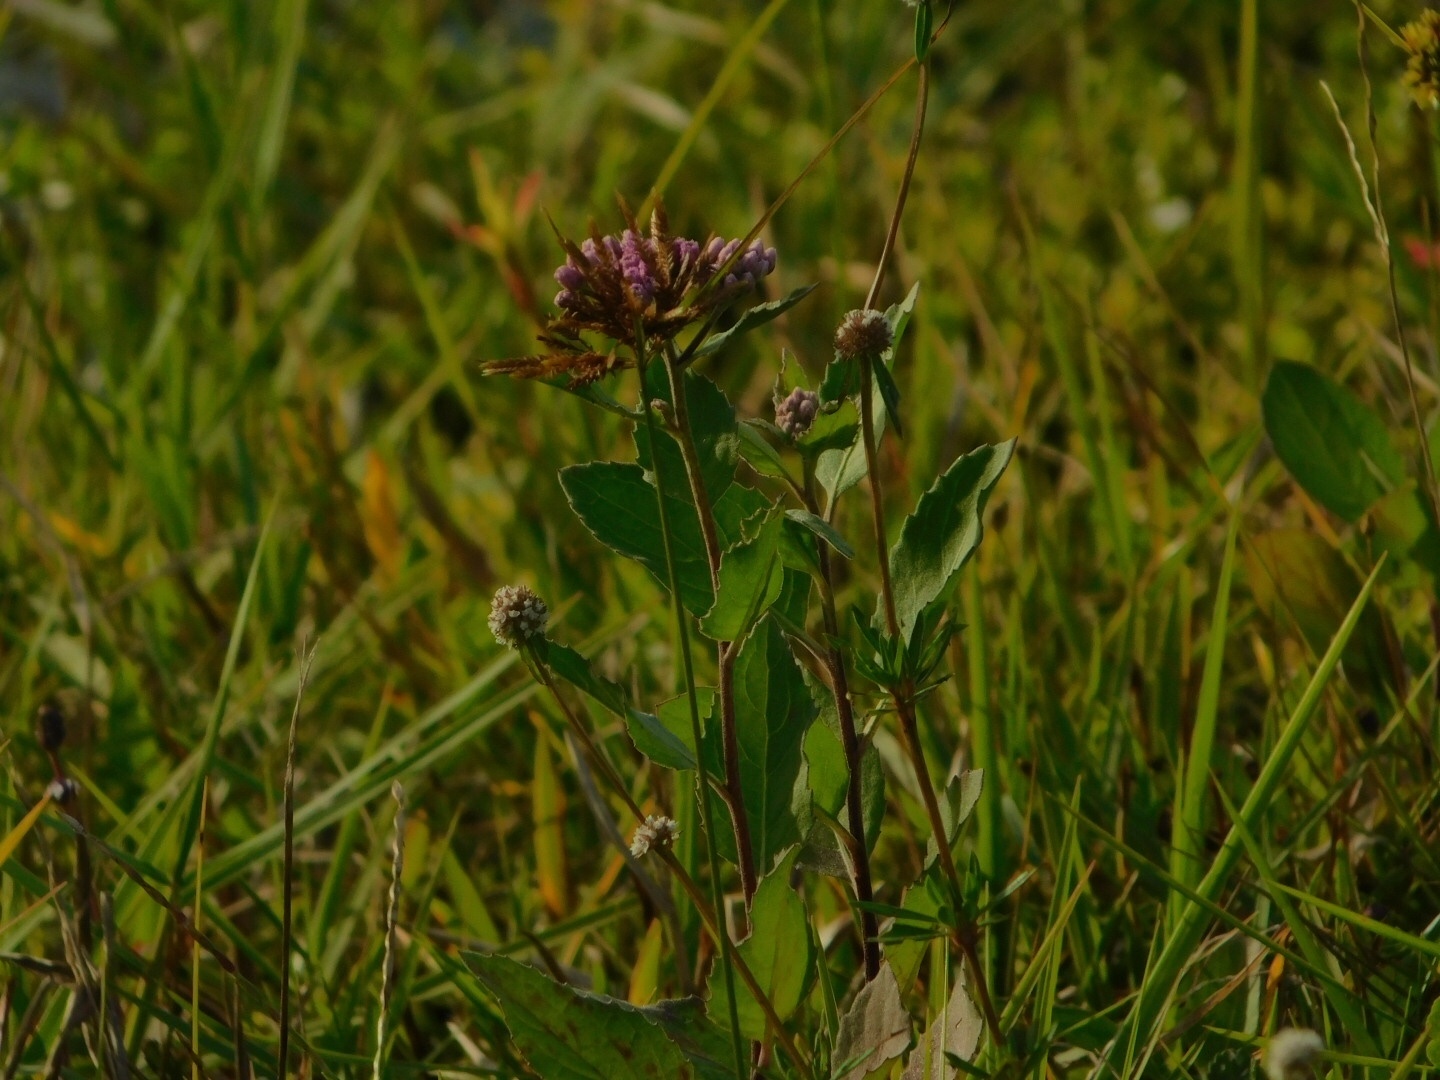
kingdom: Plantae
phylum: Tracheophyta
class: Magnoliopsida
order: Asterales
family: Asteraceae
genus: Pluchea
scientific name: Pluchea odorata
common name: Saltmarsh fleabane
